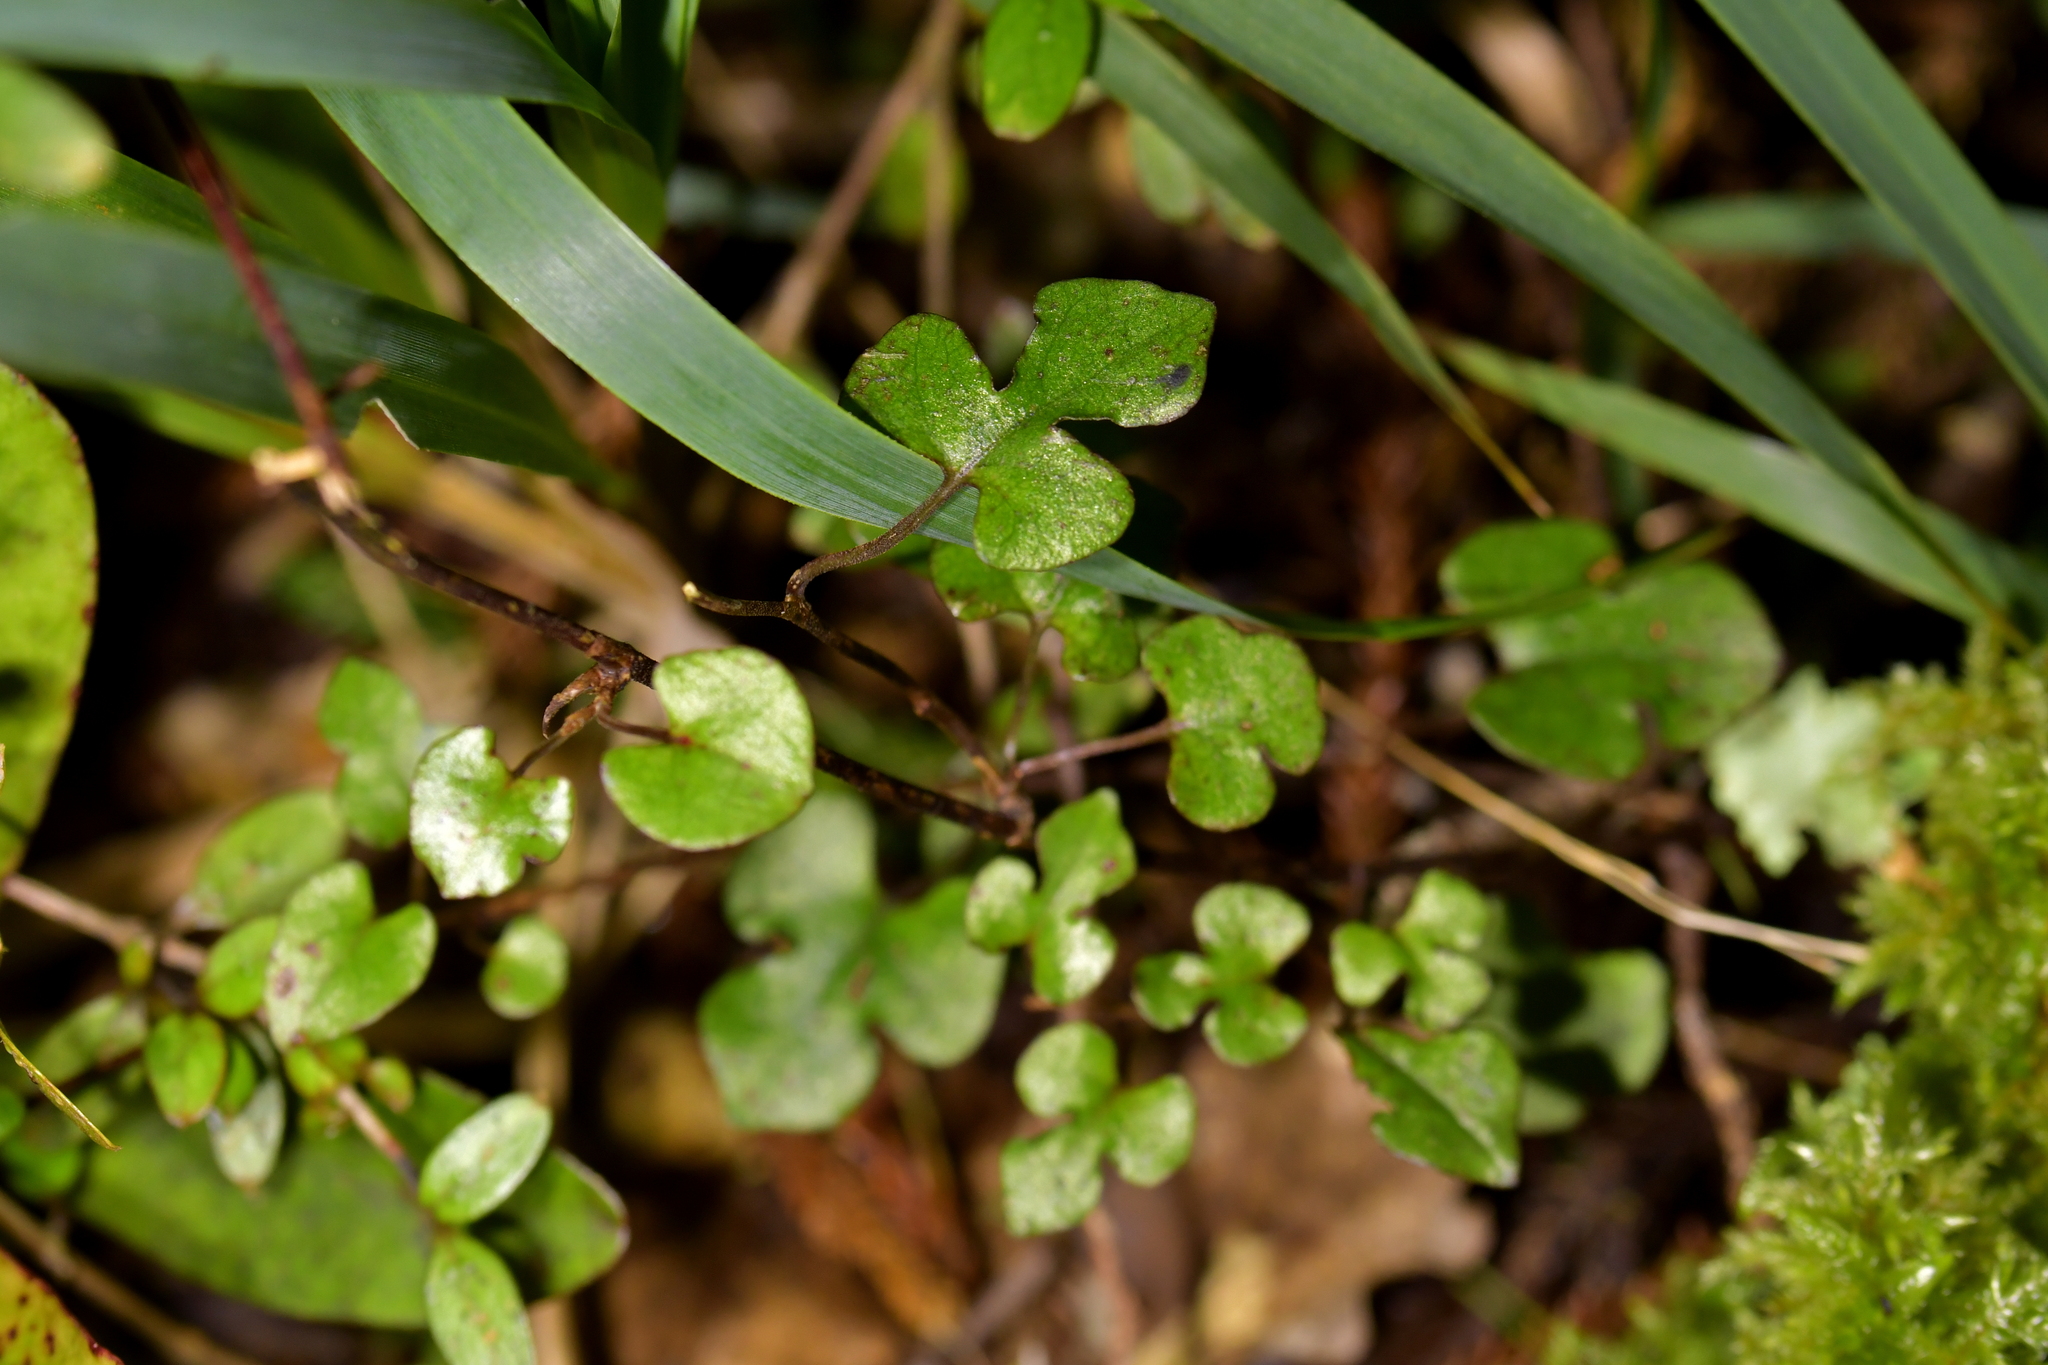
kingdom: Plantae
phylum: Tracheophyta
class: Magnoliopsida
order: Caryophyllales
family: Polygonaceae
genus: Muehlenbeckia
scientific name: Muehlenbeckia australis
